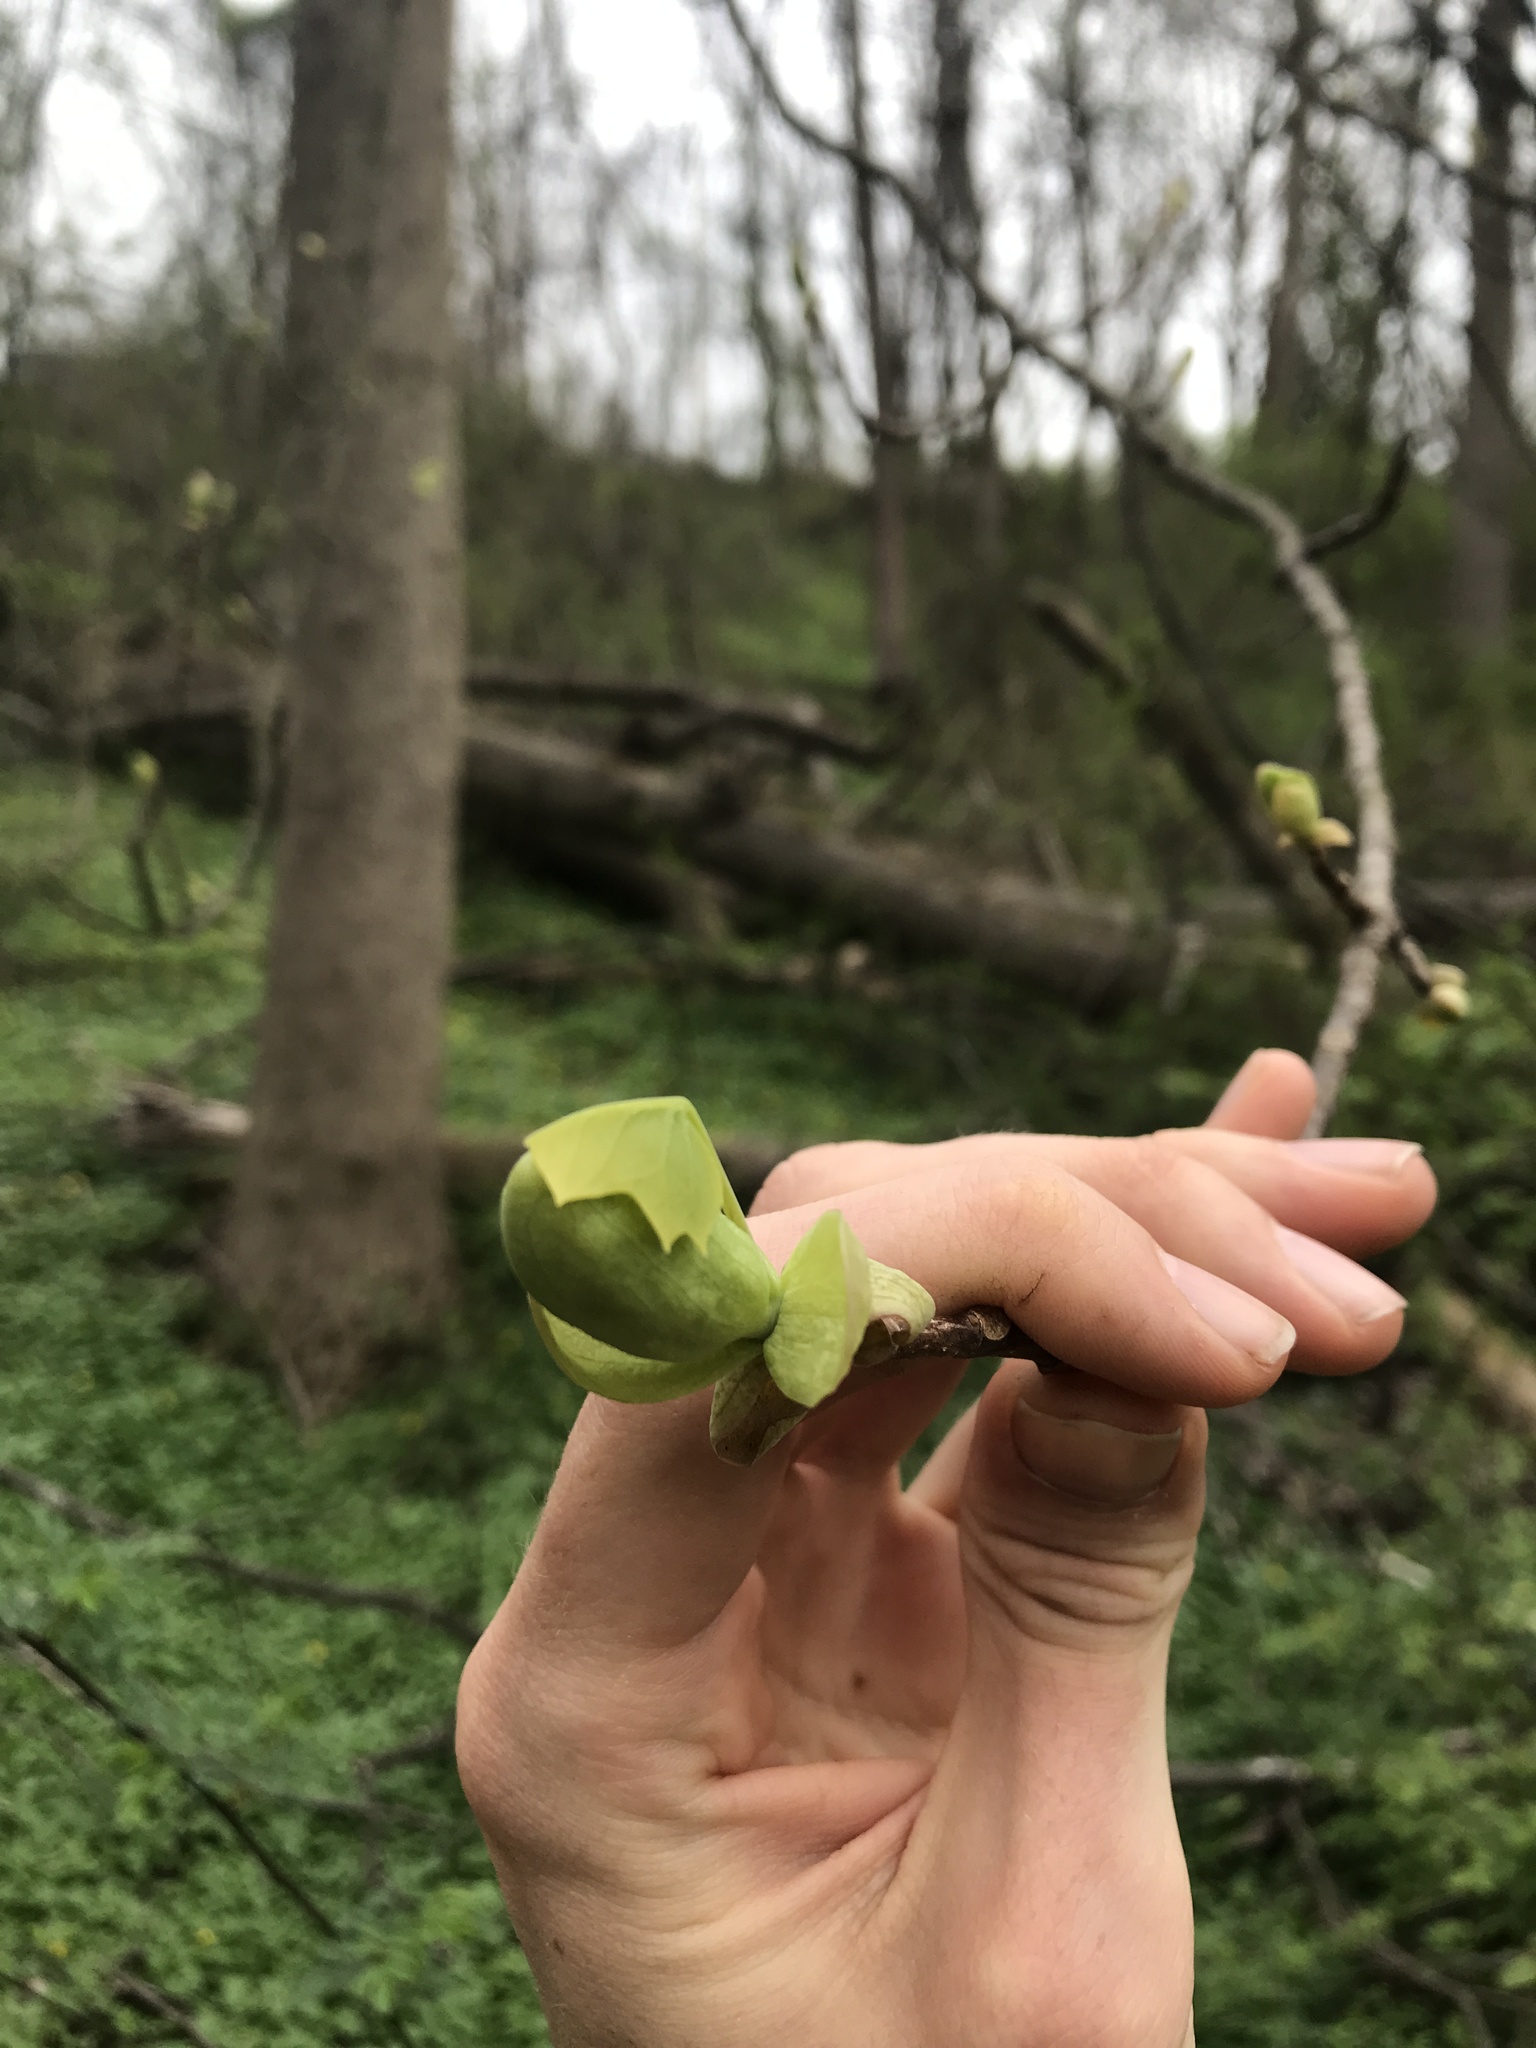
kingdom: Plantae
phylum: Tracheophyta
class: Magnoliopsida
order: Magnoliales
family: Magnoliaceae
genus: Liriodendron
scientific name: Liriodendron tulipifera
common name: Tulip tree
